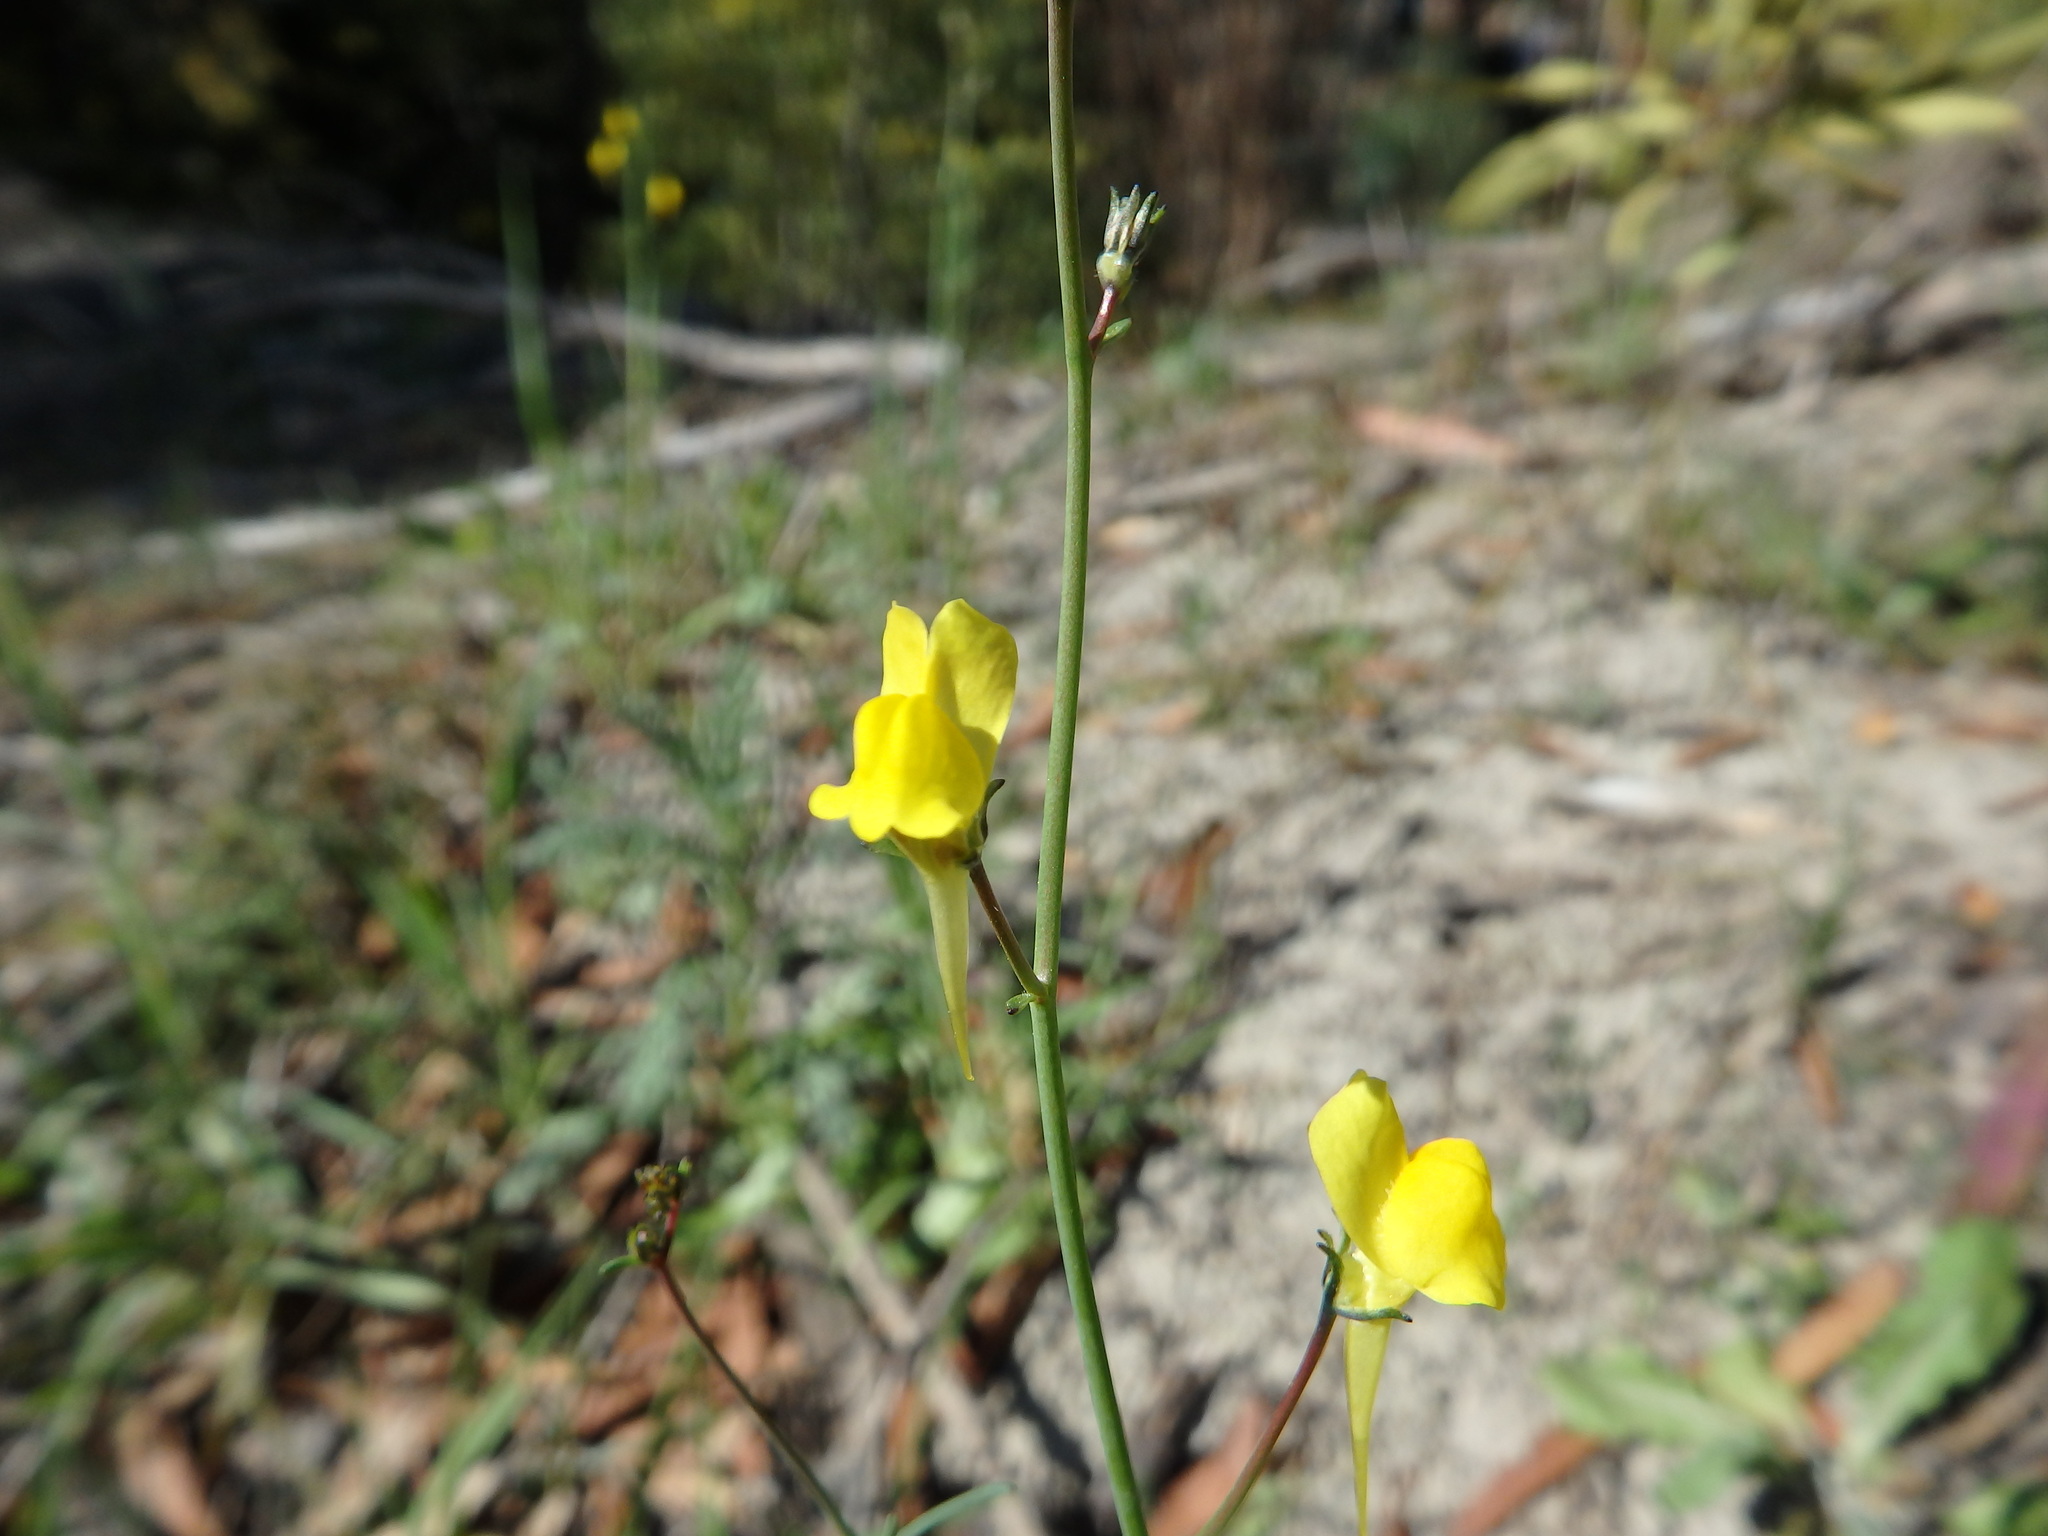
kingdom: Plantae
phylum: Tracheophyta
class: Magnoliopsida
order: Lamiales
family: Plantaginaceae
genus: Linaria
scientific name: Linaria spartea
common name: Ballast toadflax
